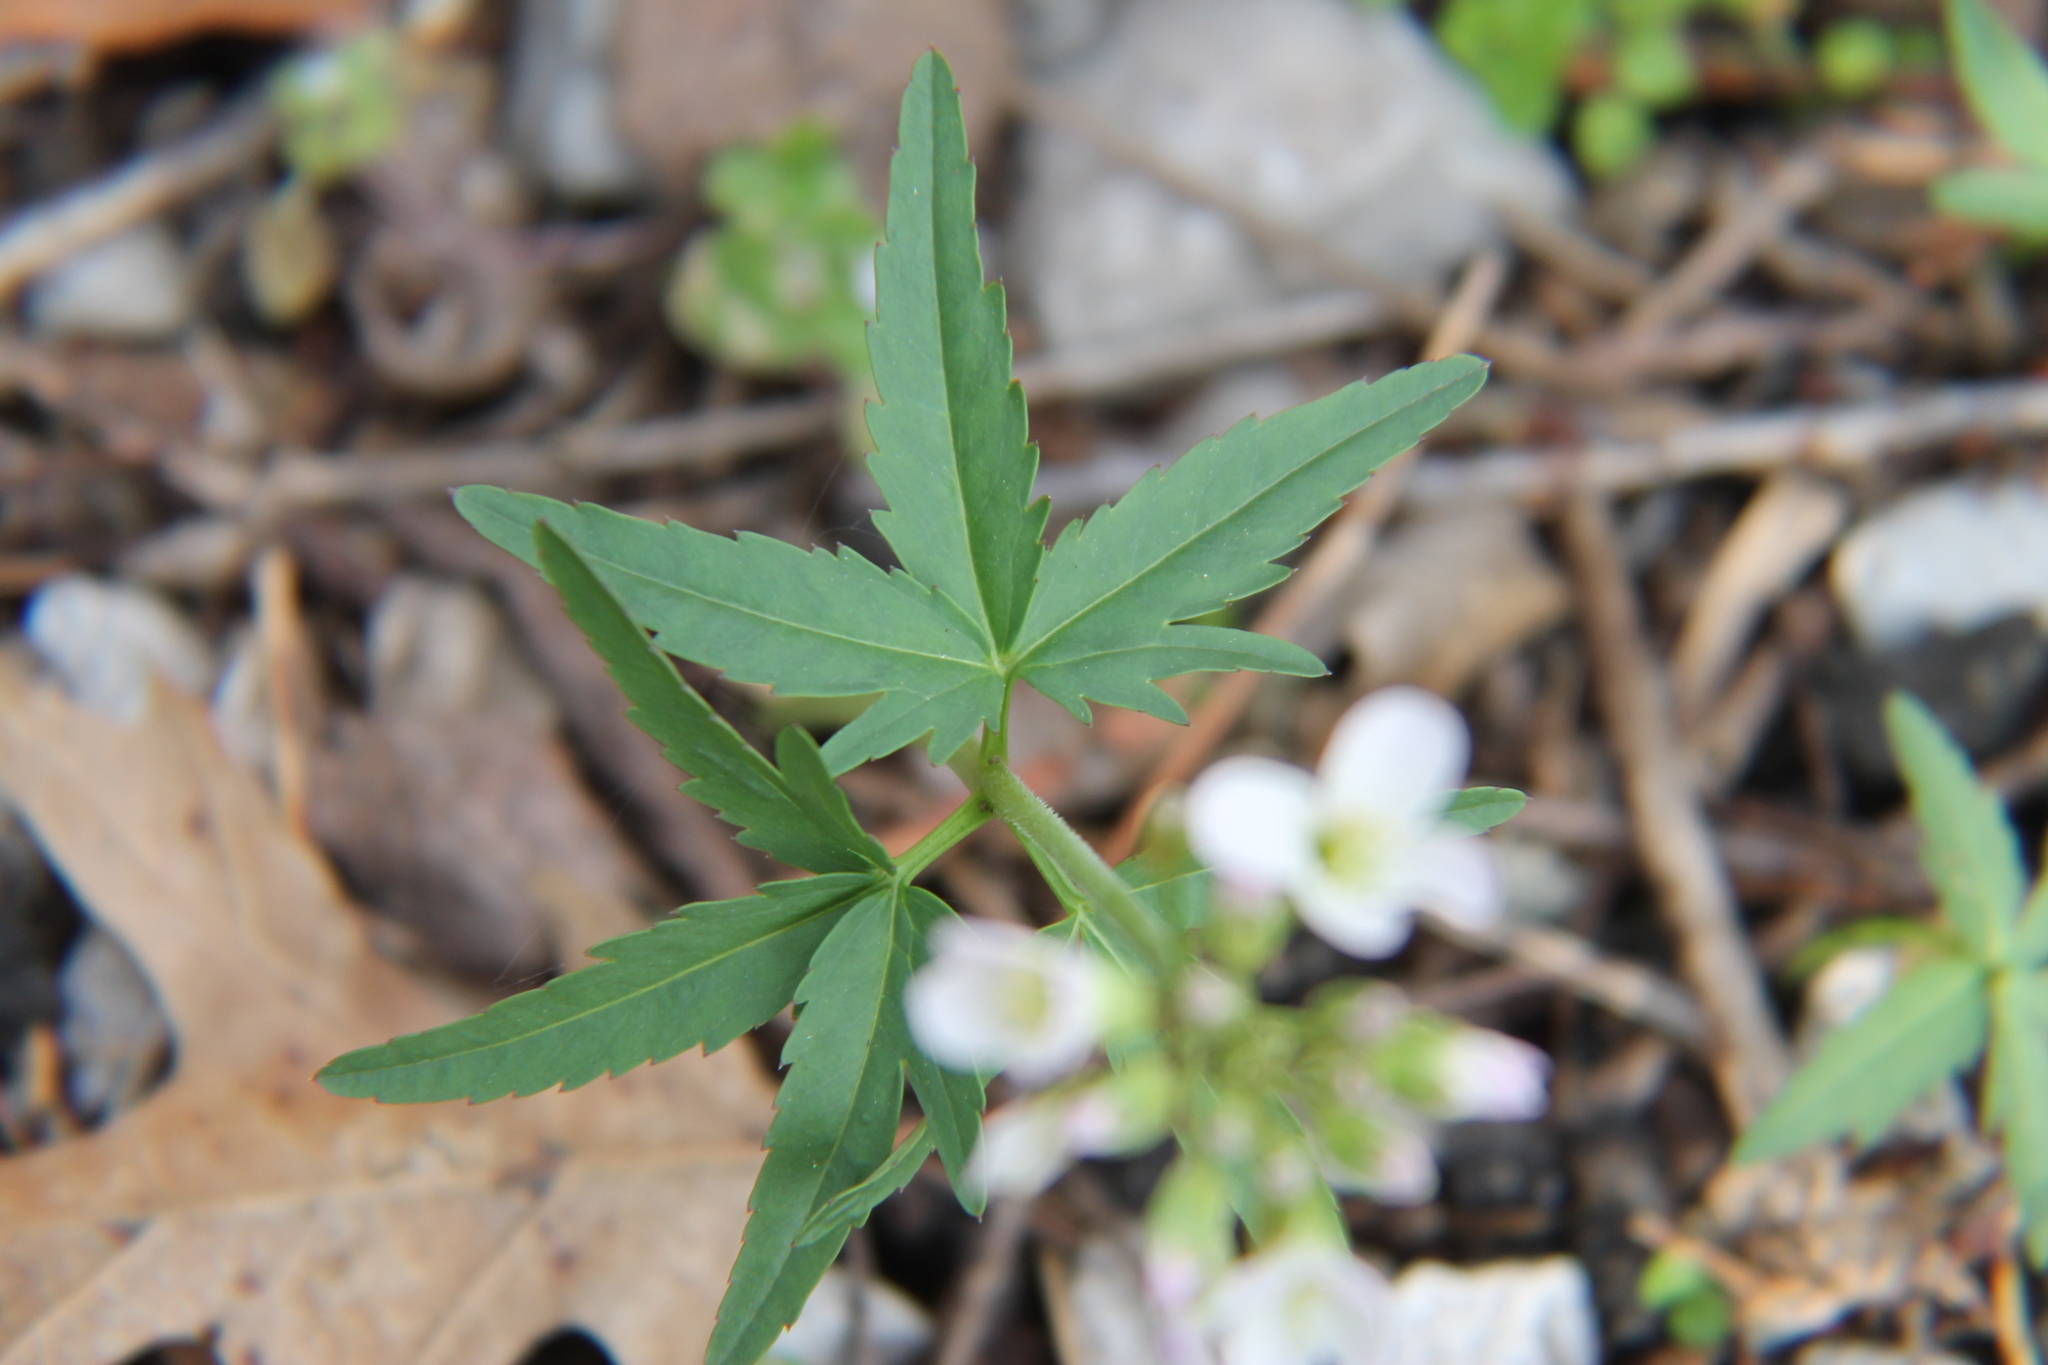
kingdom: Plantae
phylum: Tracheophyta
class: Magnoliopsida
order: Brassicales
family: Brassicaceae
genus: Cardamine
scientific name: Cardamine concatenata
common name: Cut-leaf toothcup
